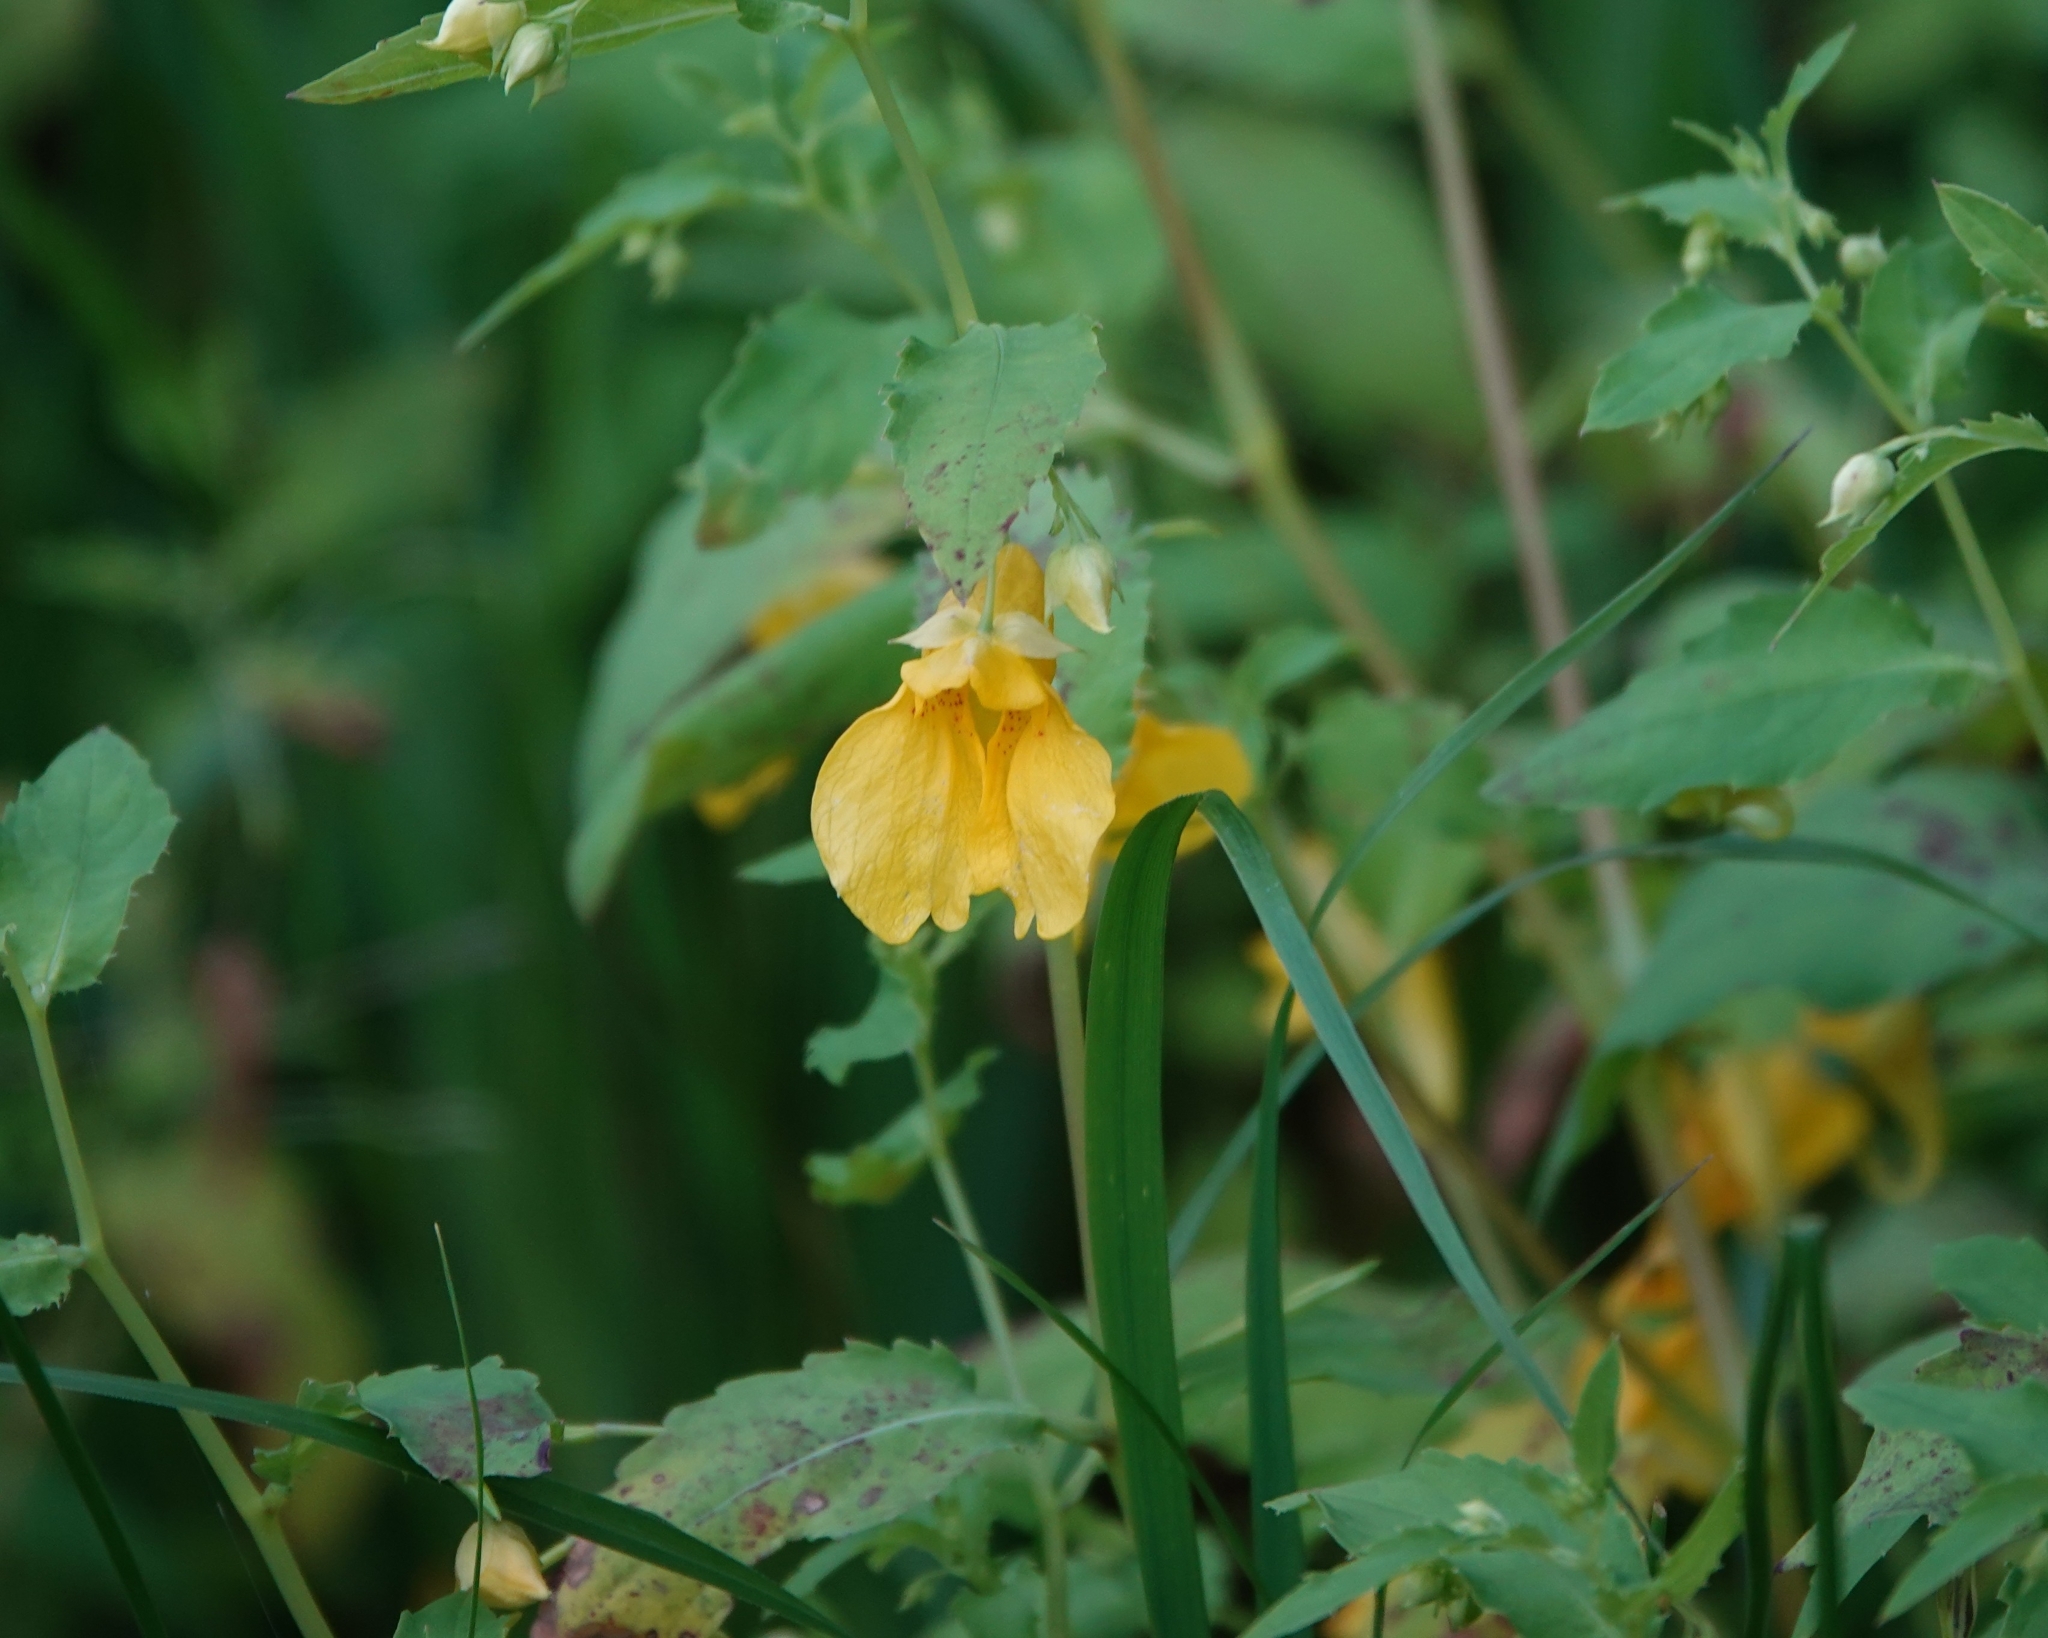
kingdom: Plantae
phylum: Tracheophyta
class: Magnoliopsida
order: Ericales
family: Balsaminaceae
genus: Impatiens
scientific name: Impatiens noli-tangere
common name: Touch-me-not balsam
